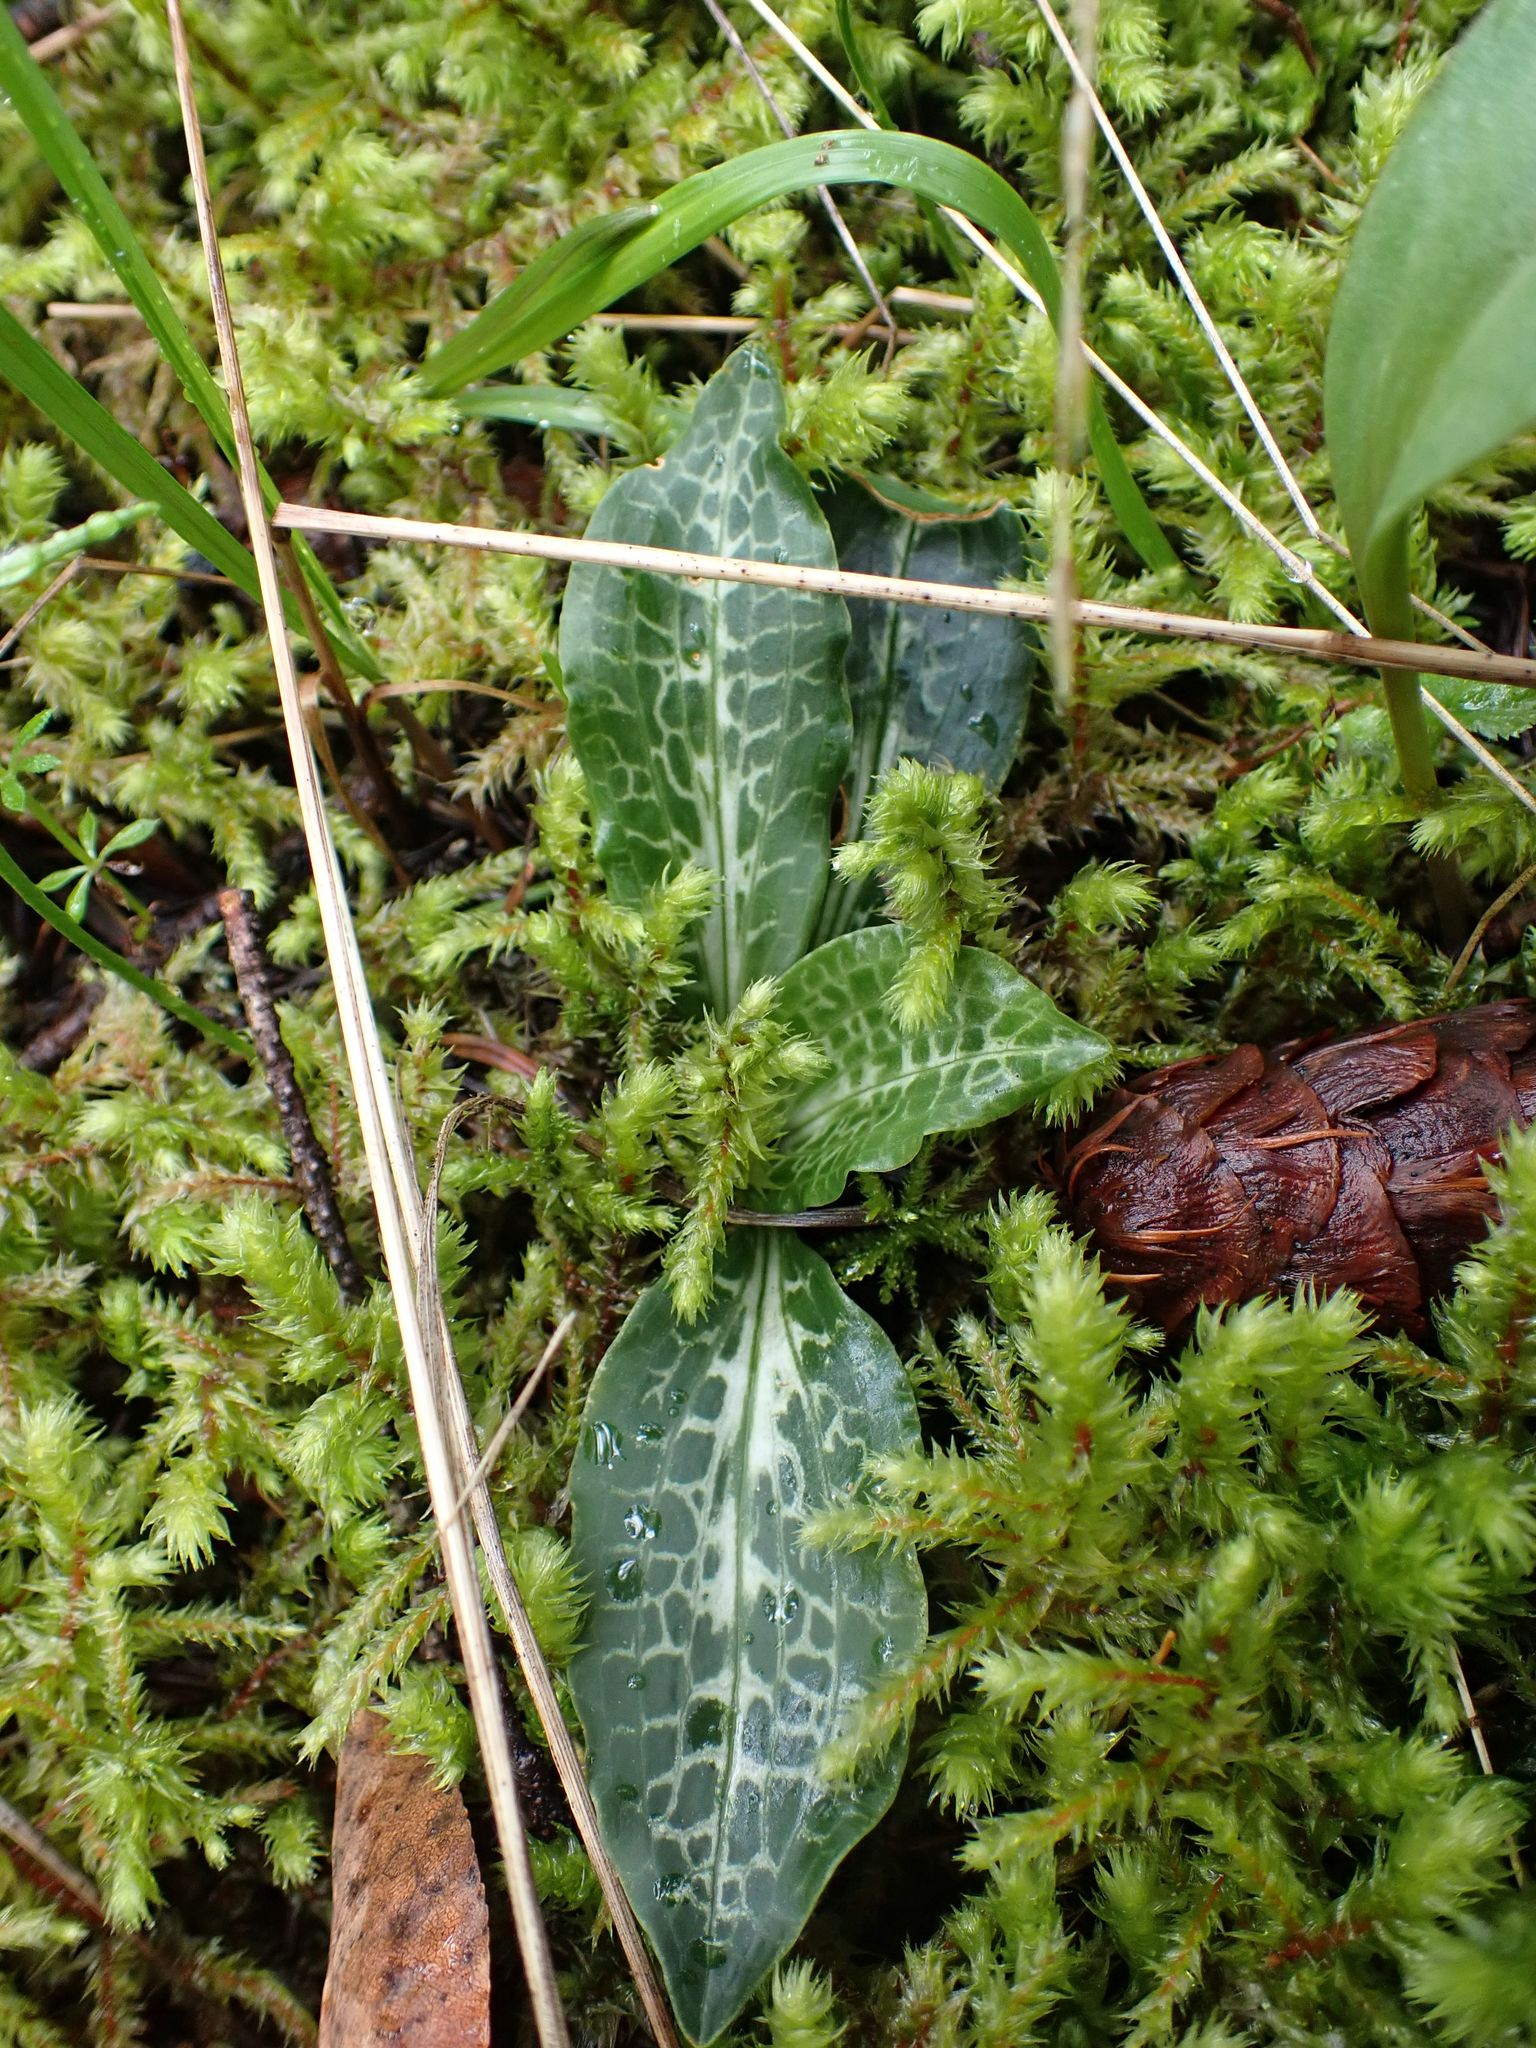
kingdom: Plantae
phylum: Tracheophyta
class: Liliopsida
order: Asparagales
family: Orchidaceae
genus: Goodyera
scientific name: Goodyera oblongifolia
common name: Giant rattlesnake-plantain
